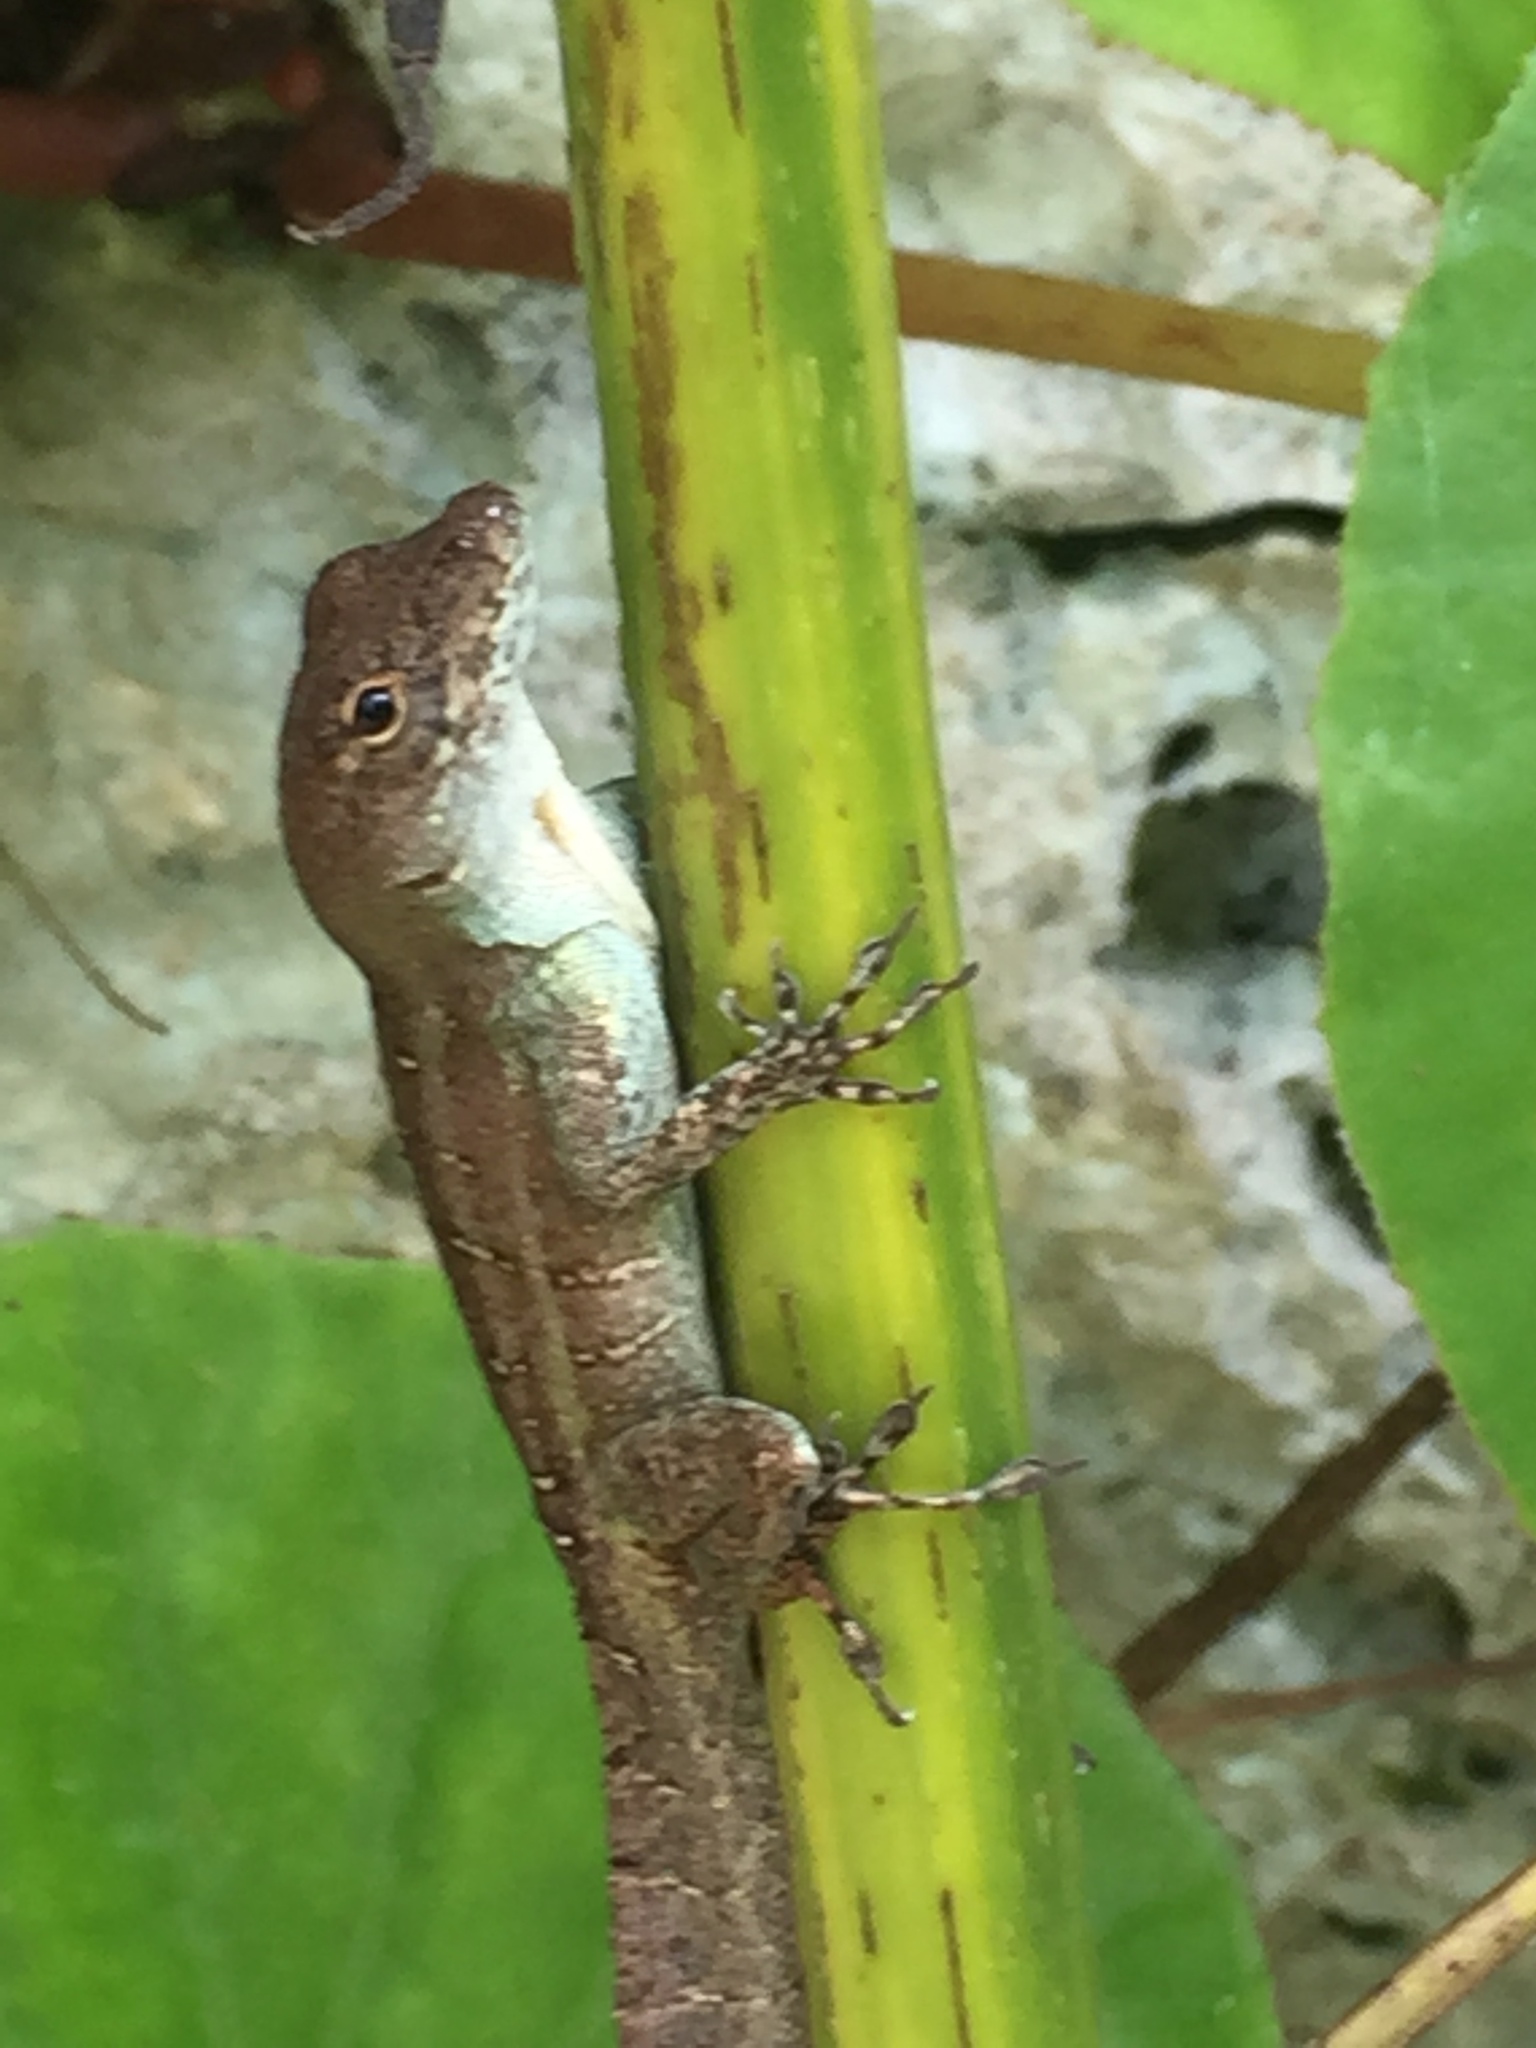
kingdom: Animalia
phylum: Chordata
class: Squamata
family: Dactyloidae
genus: Anolis
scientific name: Anolis sagrei
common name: Brown anole
